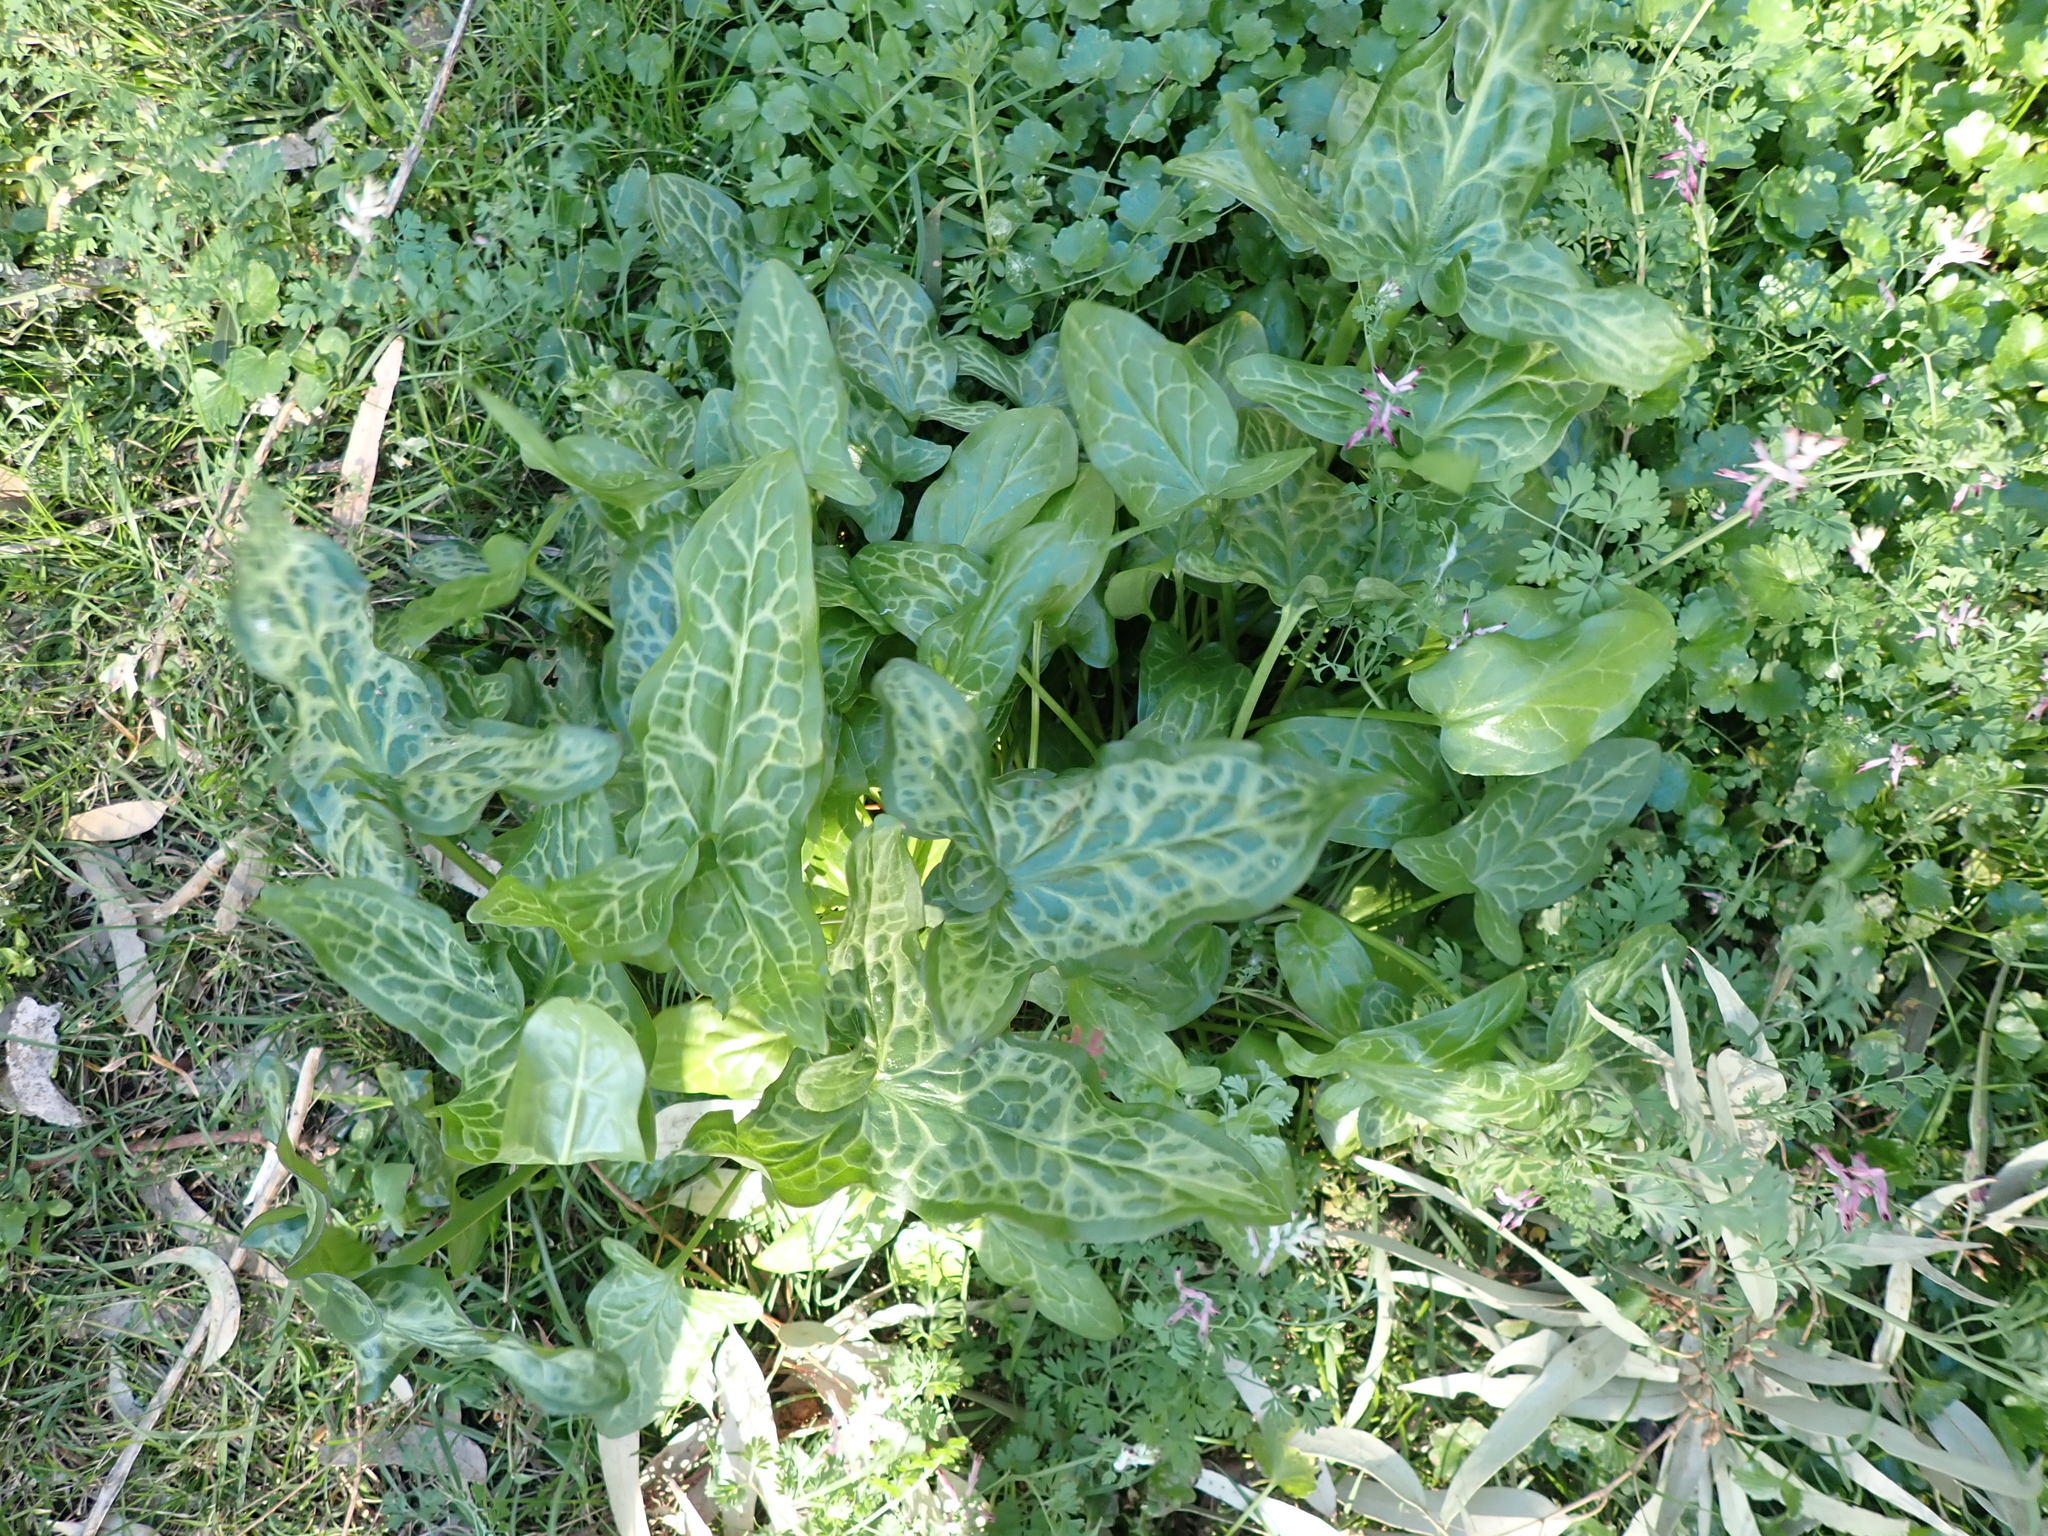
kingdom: Plantae
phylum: Tracheophyta
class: Liliopsida
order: Alismatales
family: Araceae
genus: Arum
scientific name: Arum italicum
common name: Italian lords-and-ladies
